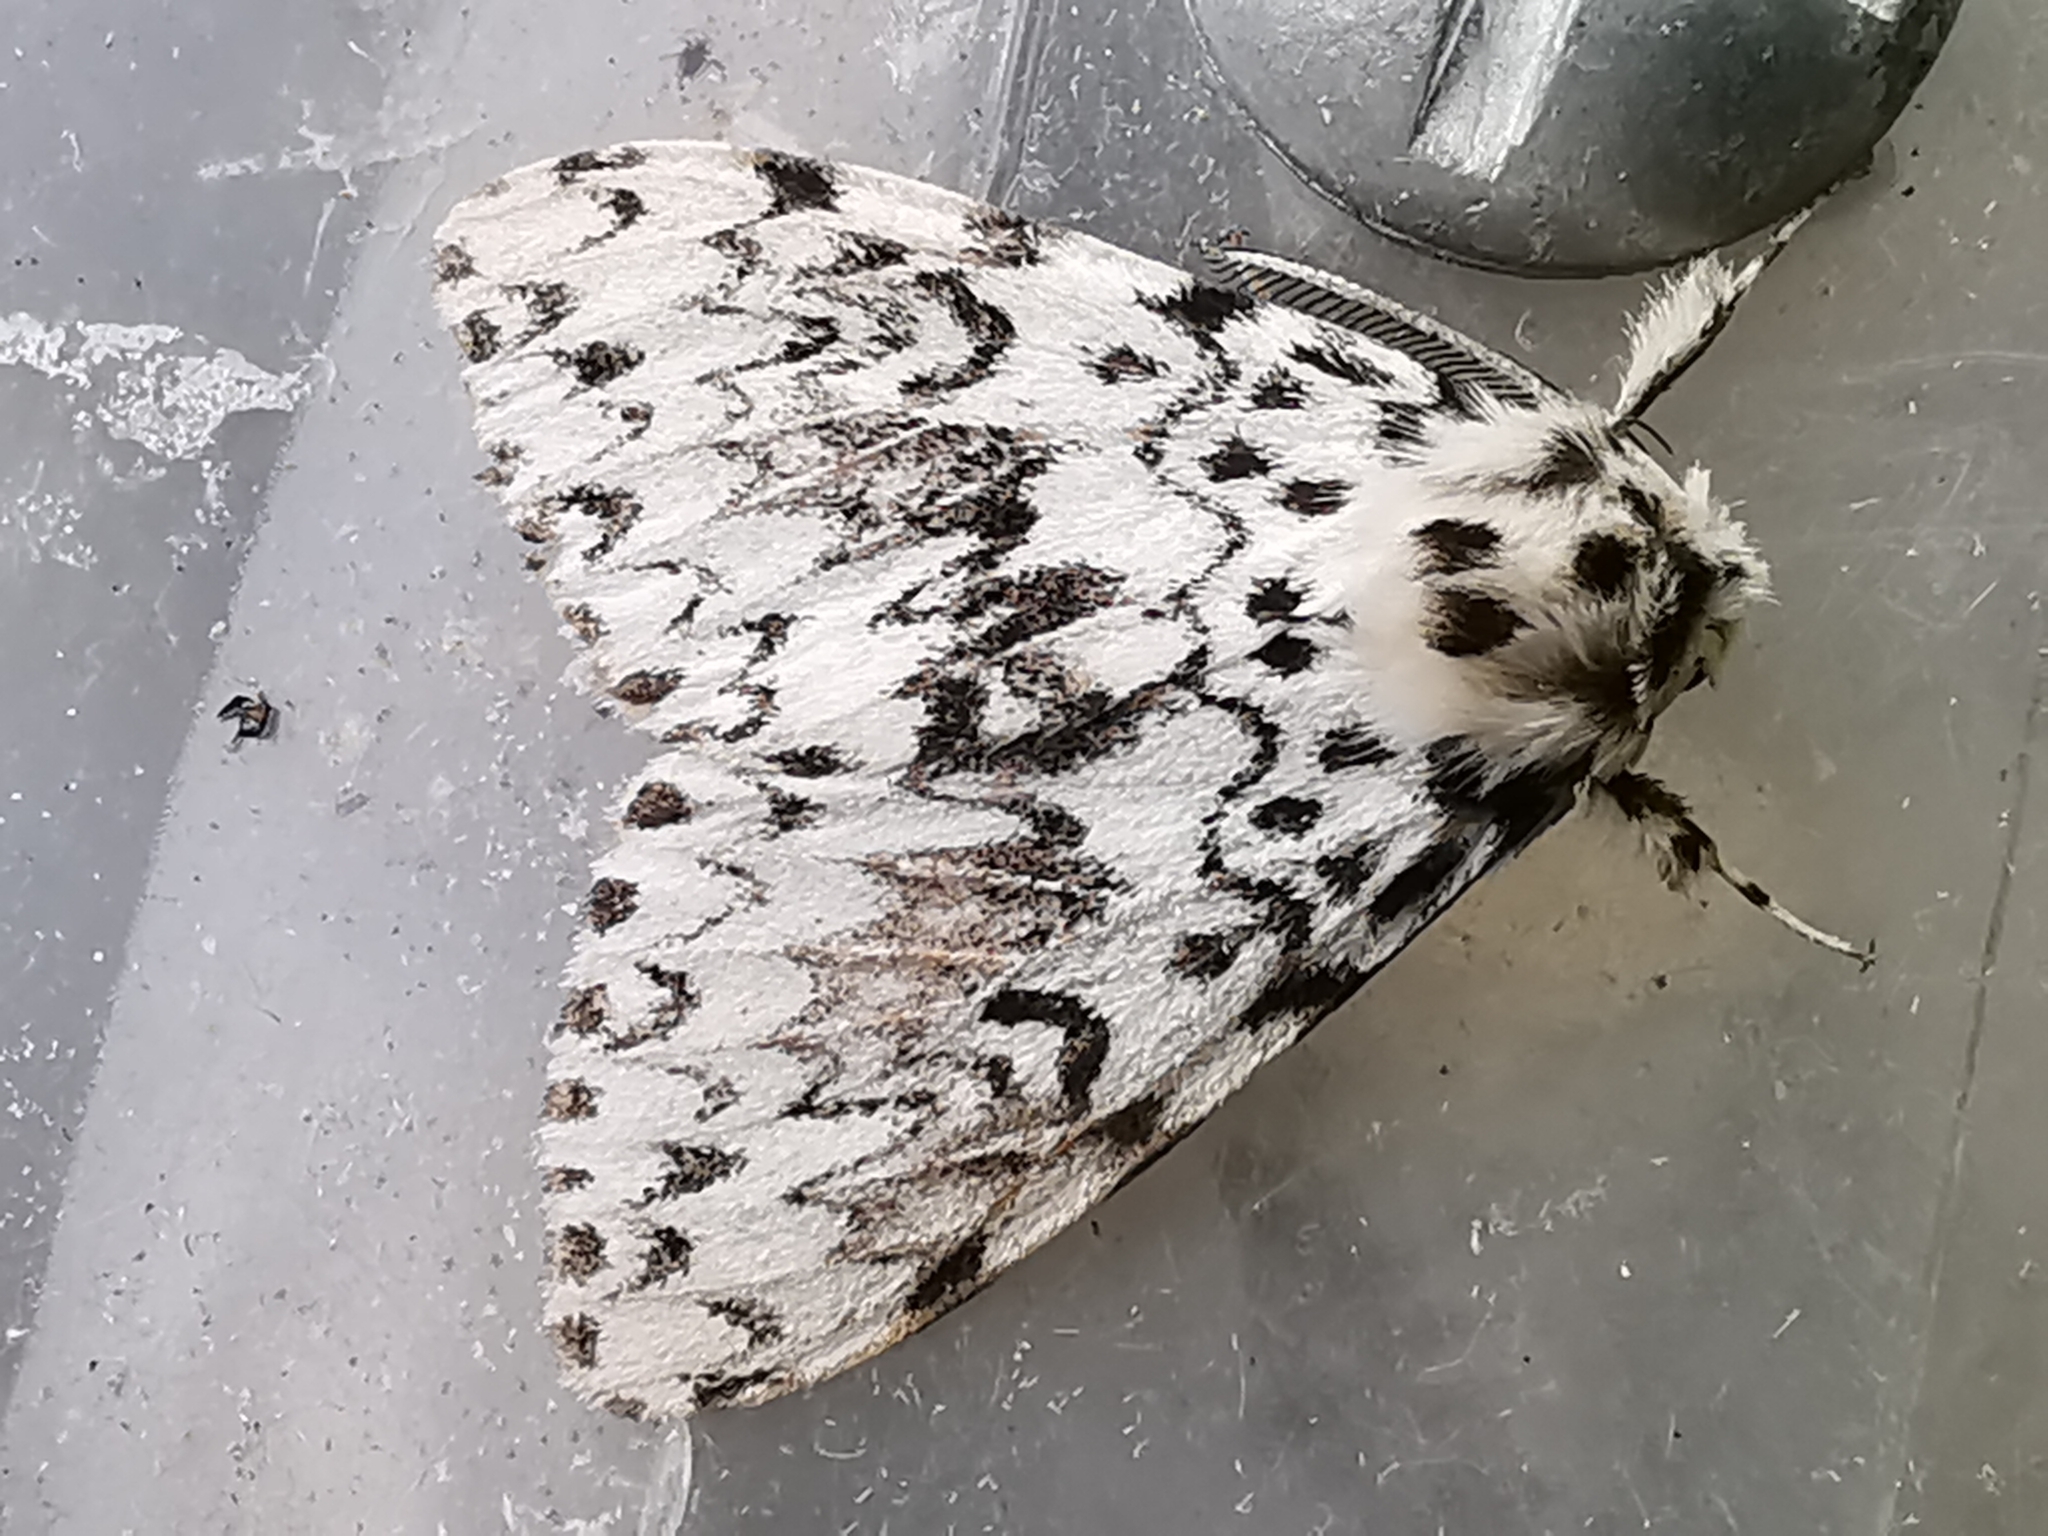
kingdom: Animalia
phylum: Arthropoda
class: Insecta
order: Lepidoptera
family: Erebidae
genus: Lymantria
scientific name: Lymantria monacha
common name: Black arches
